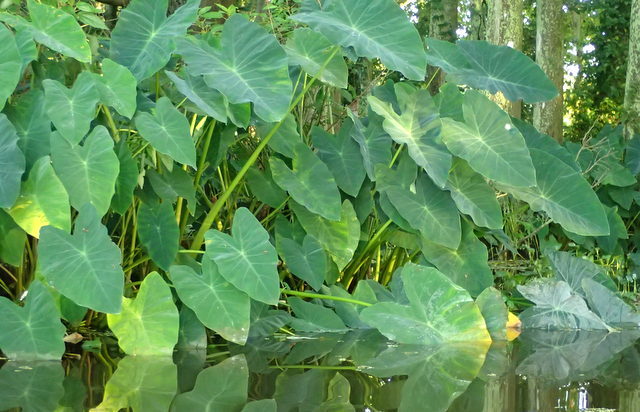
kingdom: Plantae
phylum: Tracheophyta
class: Liliopsida
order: Alismatales
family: Araceae
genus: Colocasia
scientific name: Colocasia esculenta
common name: Taro
